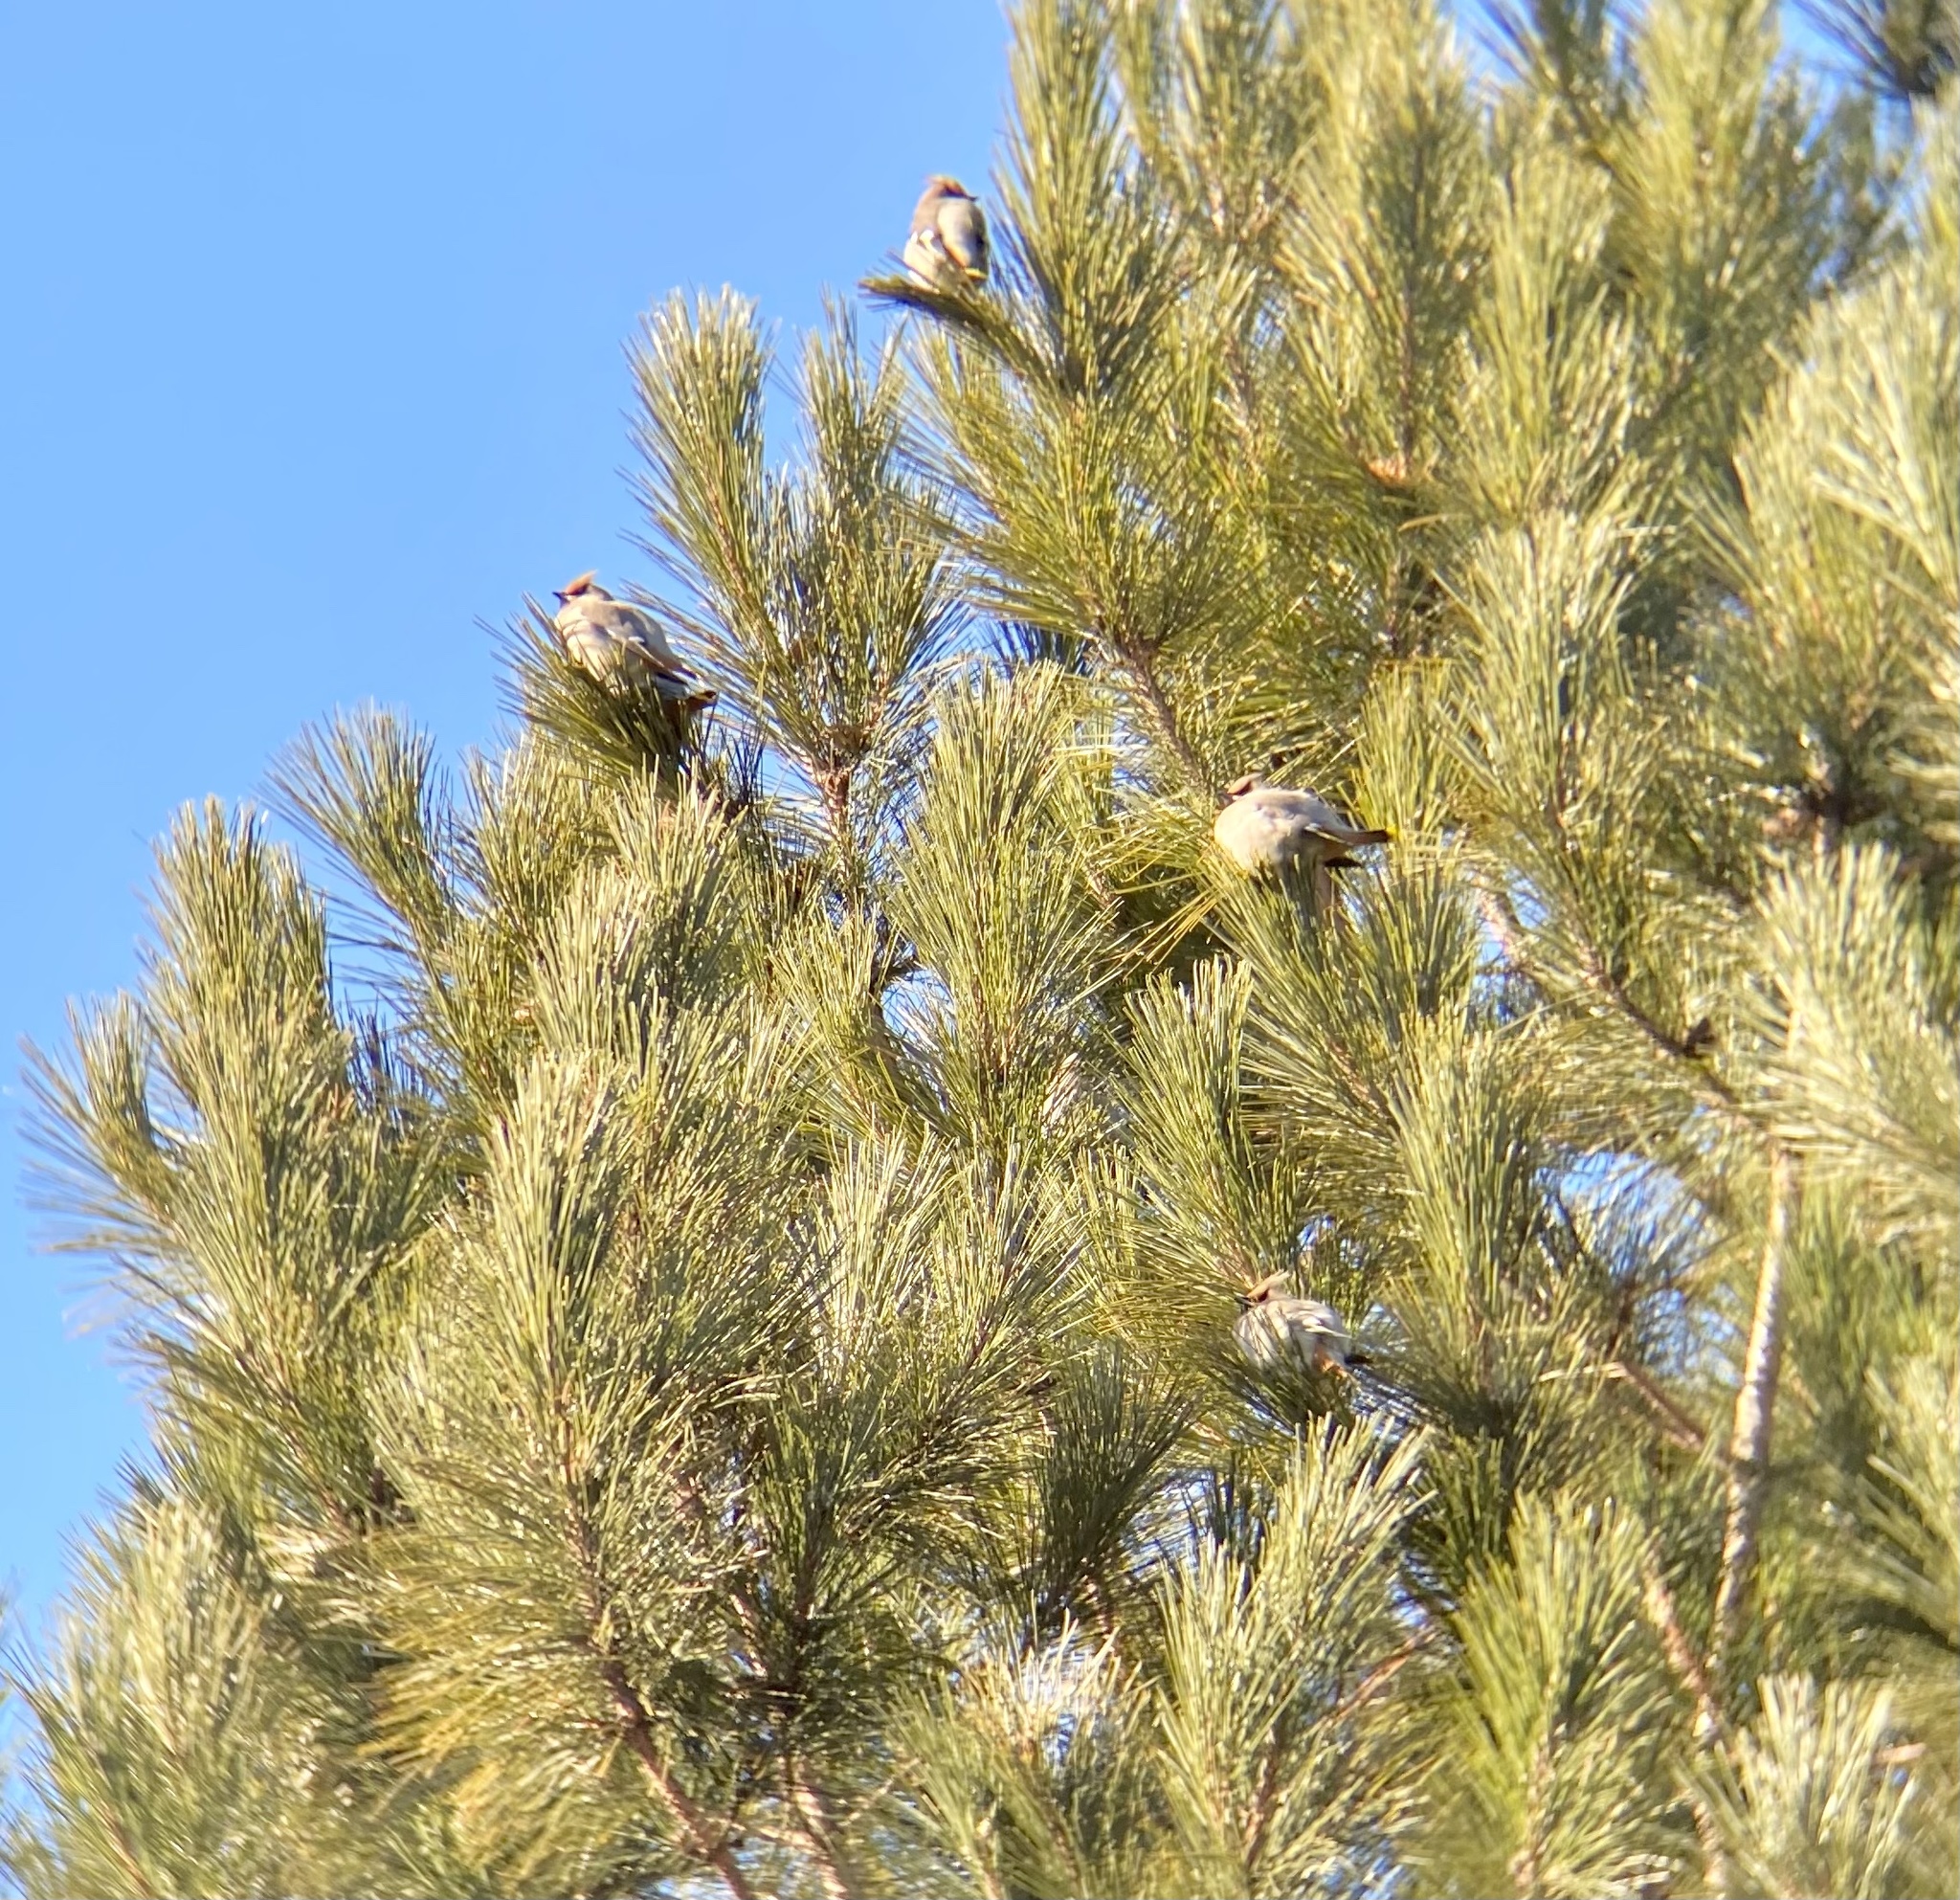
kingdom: Animalia
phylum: Chordata
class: Aves
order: Passeriformes
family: Bombycillidae
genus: Bombycilla
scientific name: Bombycilla garrulus
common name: Bohemian waxwing
